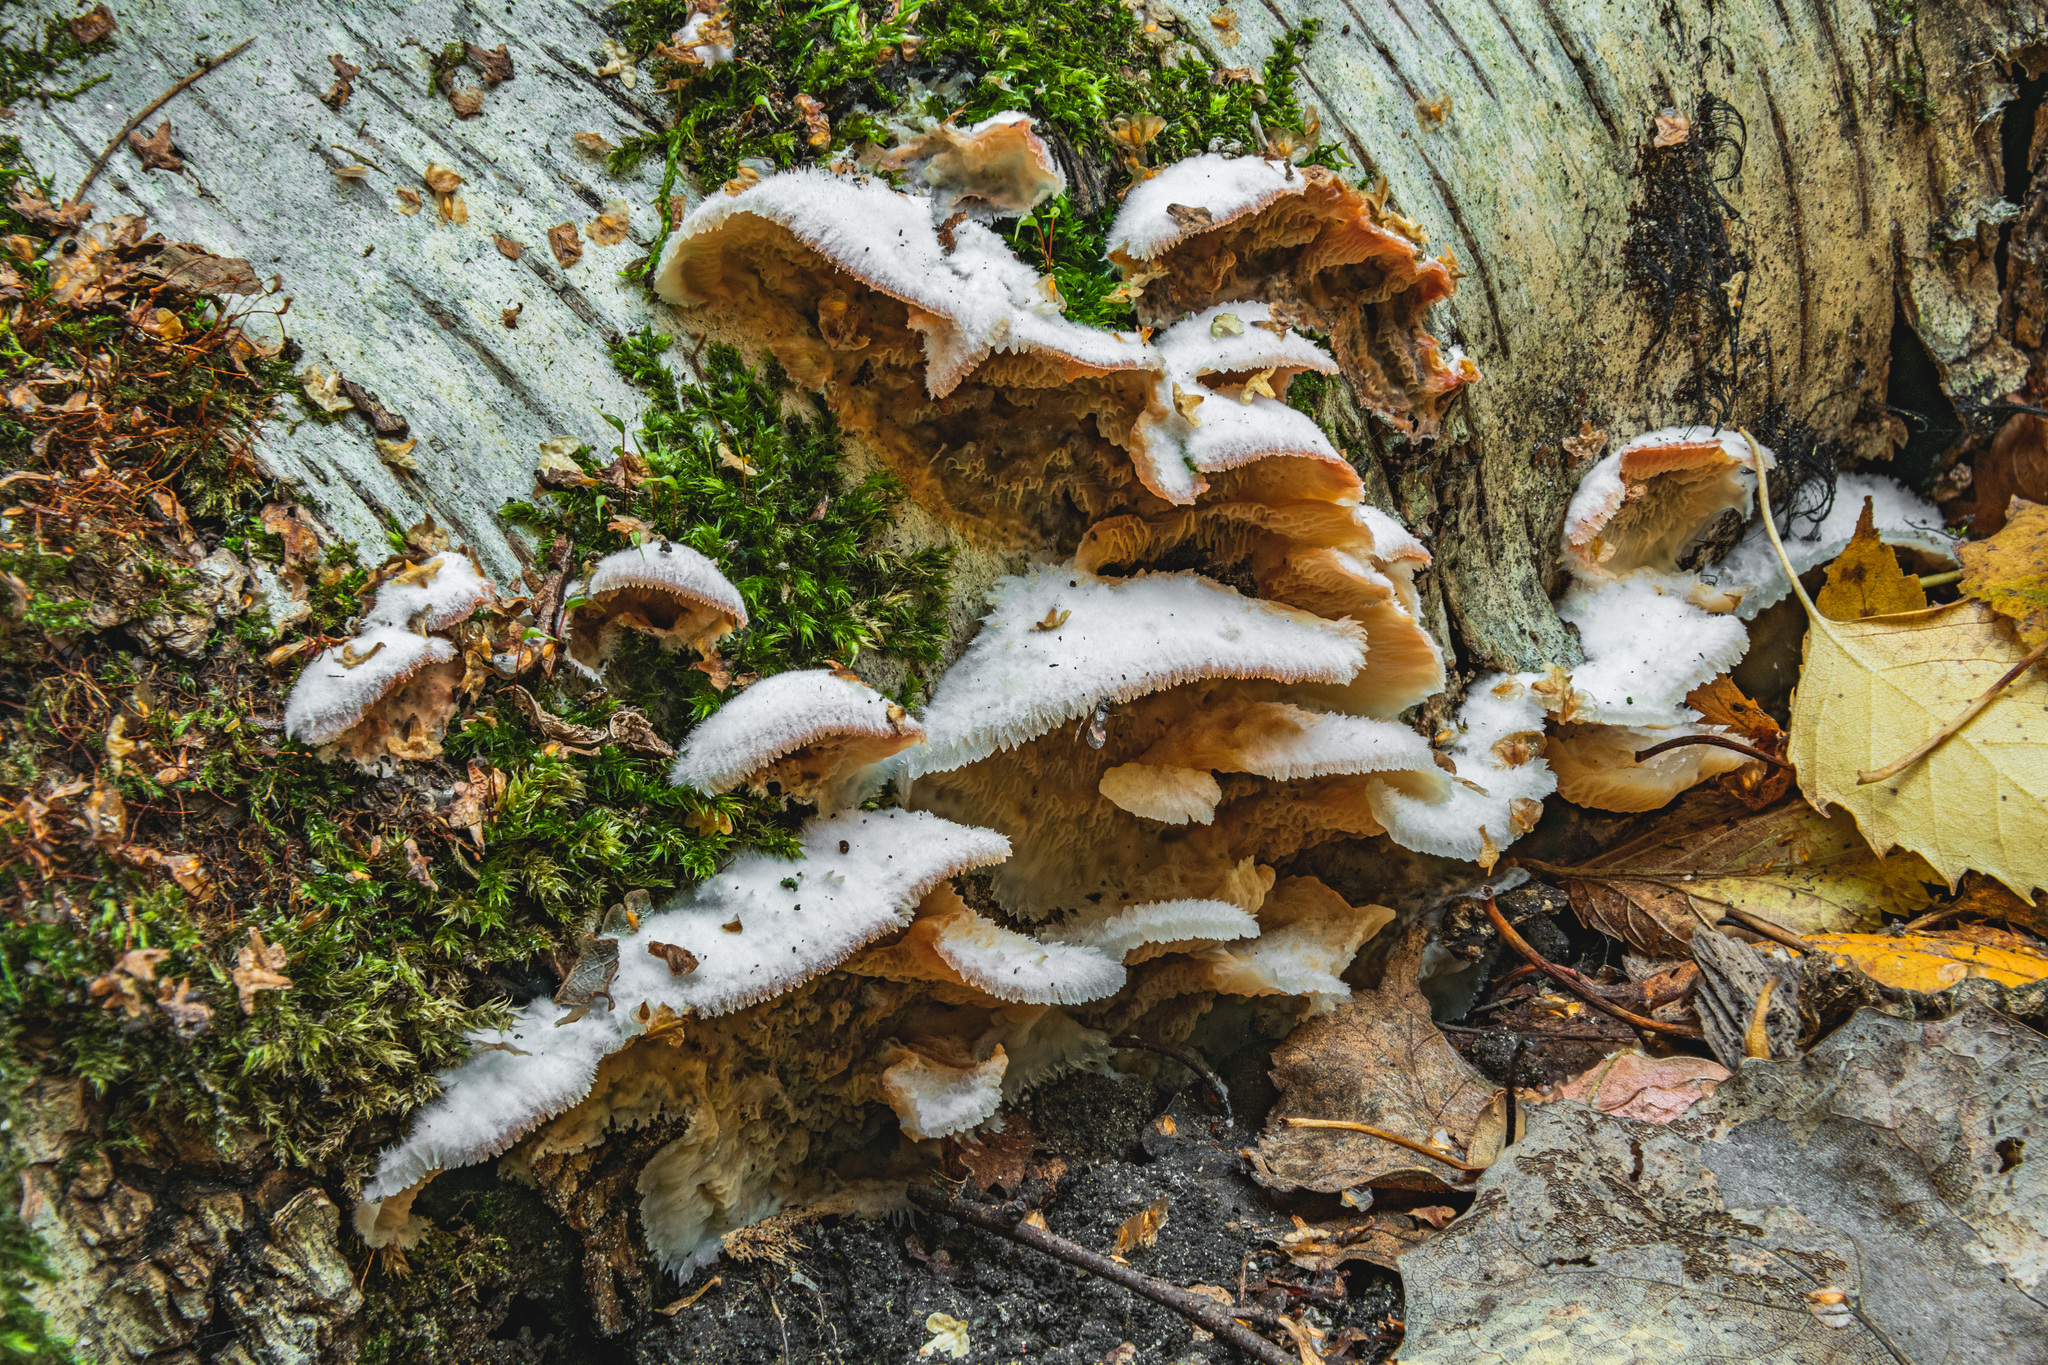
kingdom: Fungi
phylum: Basidiomycota
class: Agaricomycetes
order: Polyporales
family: Meruliaceae
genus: Phlebia
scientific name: Phlebia tremellosa
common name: Jelly rot
